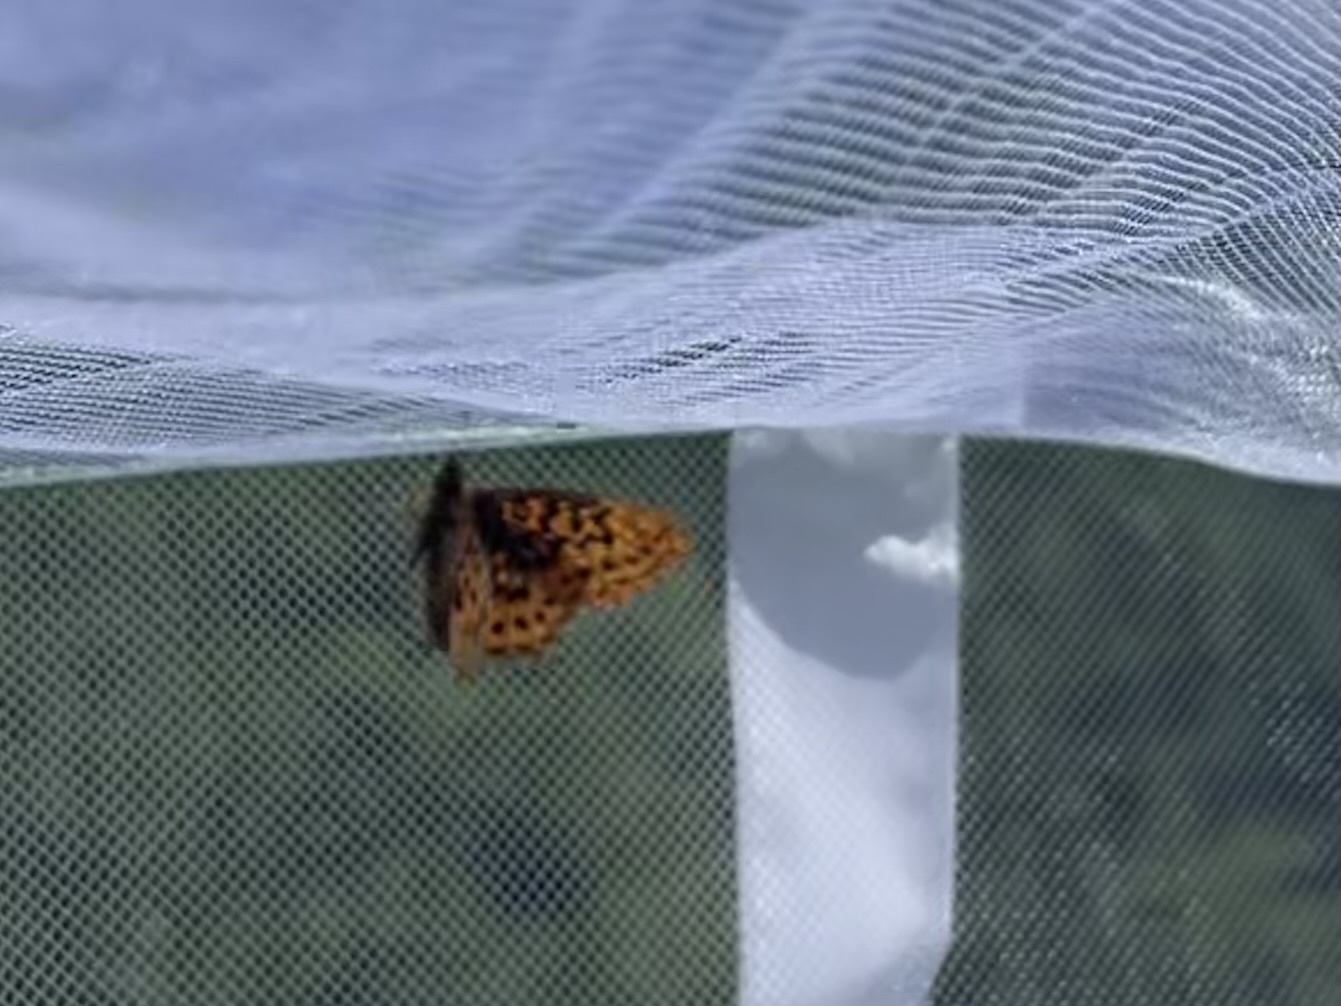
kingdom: Animalia
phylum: Arthropoda
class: Insecta
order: Lepidoptera
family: Nymphalidae
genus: Boloria
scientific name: Boloria epithore
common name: Pacific fritillary
